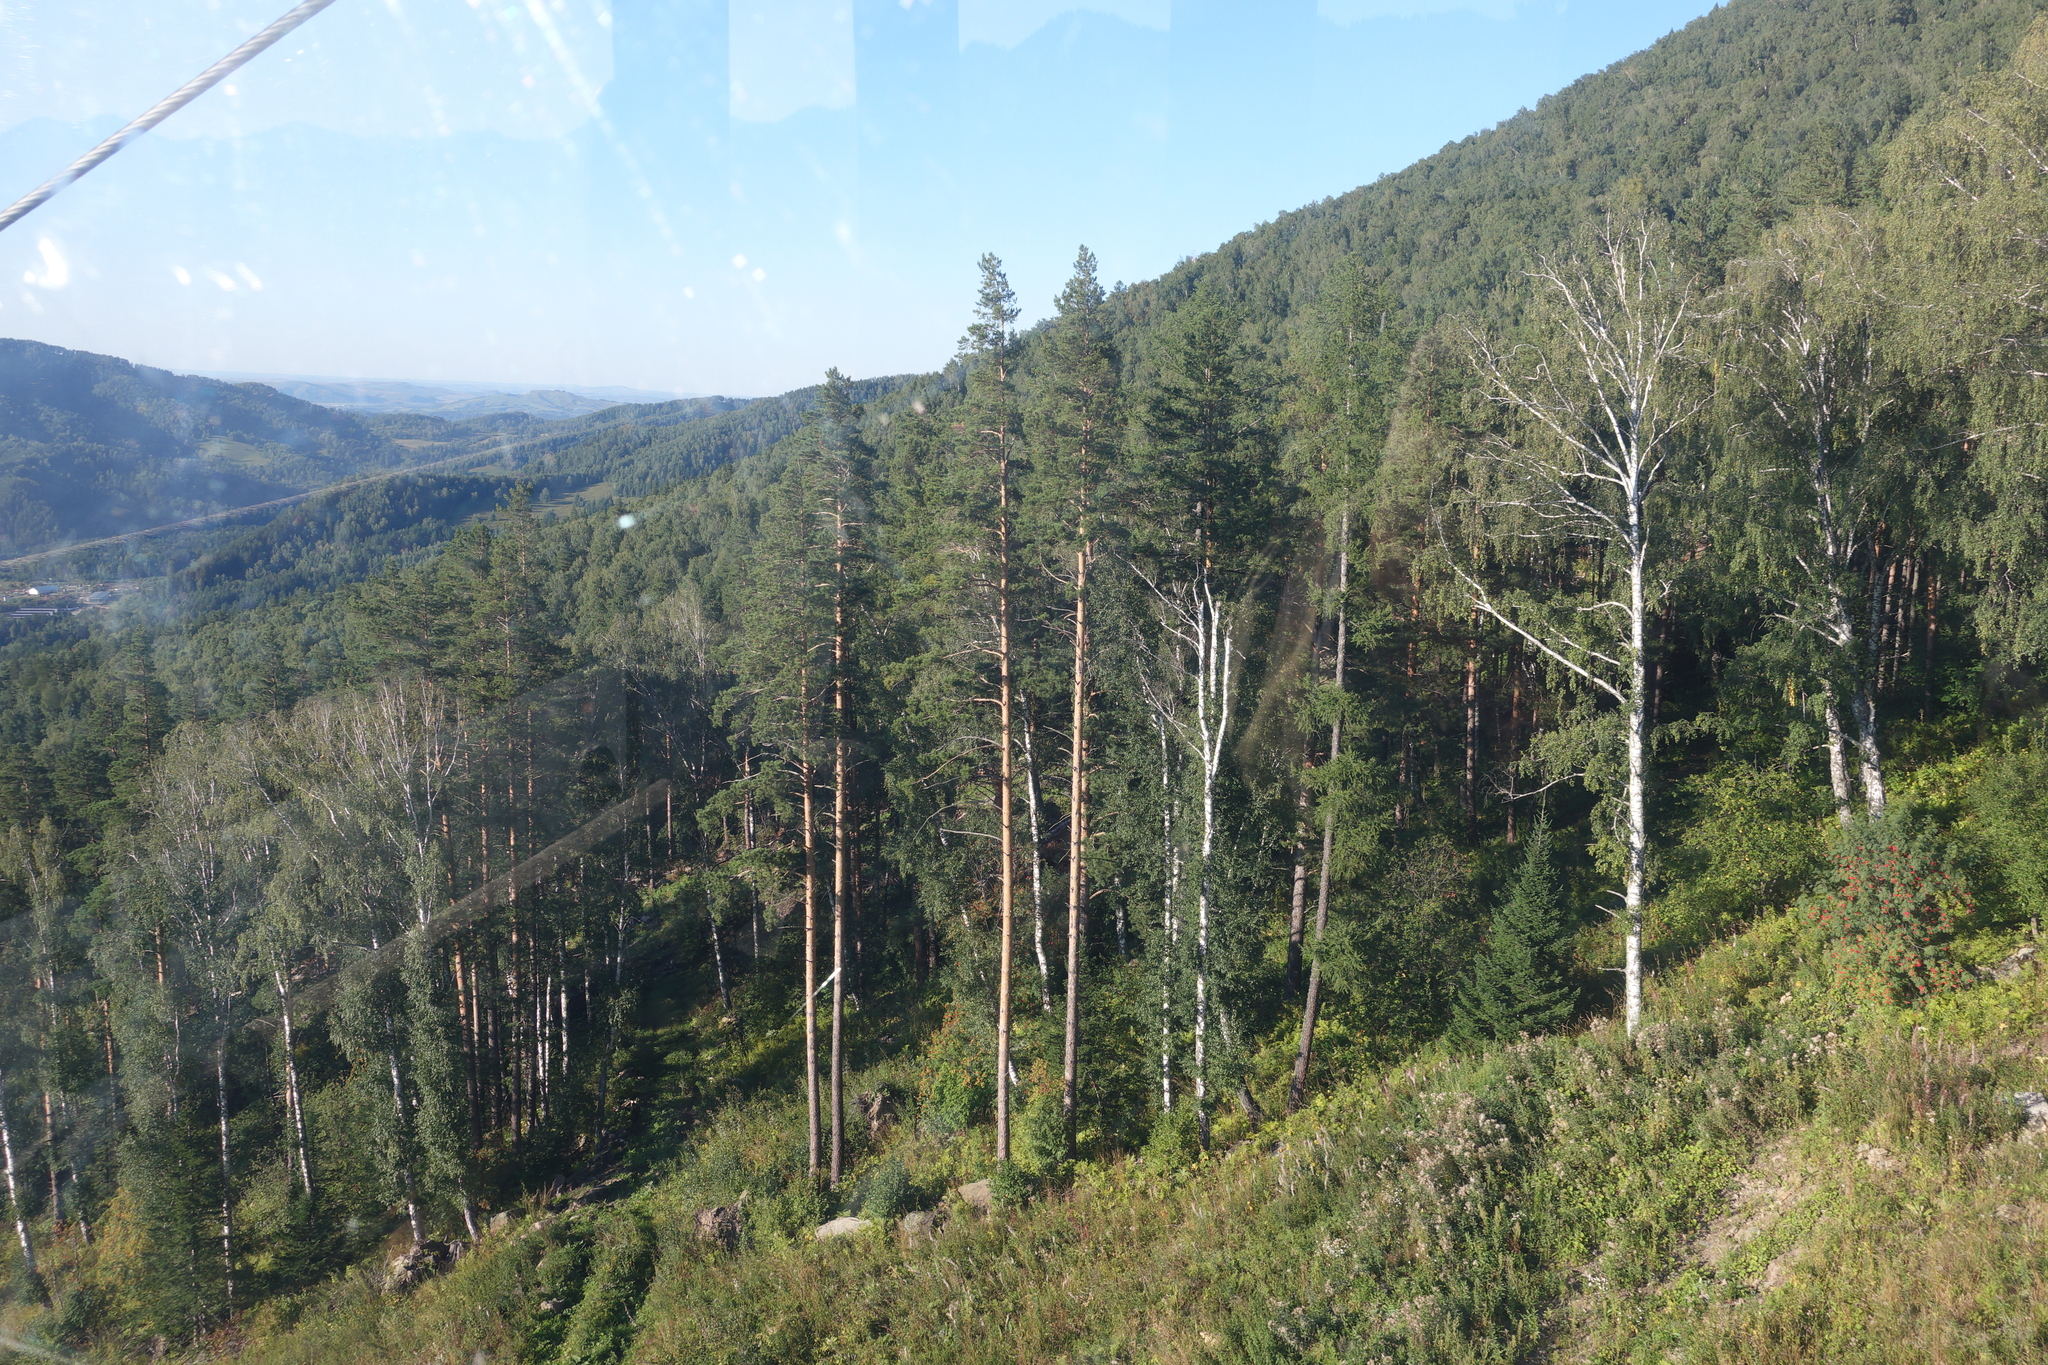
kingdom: Plantae
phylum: Tracheophyta
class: Magnoliopsida
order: Fagales
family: Betulaceae
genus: Betula
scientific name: Betula pendula
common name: Silver birch
